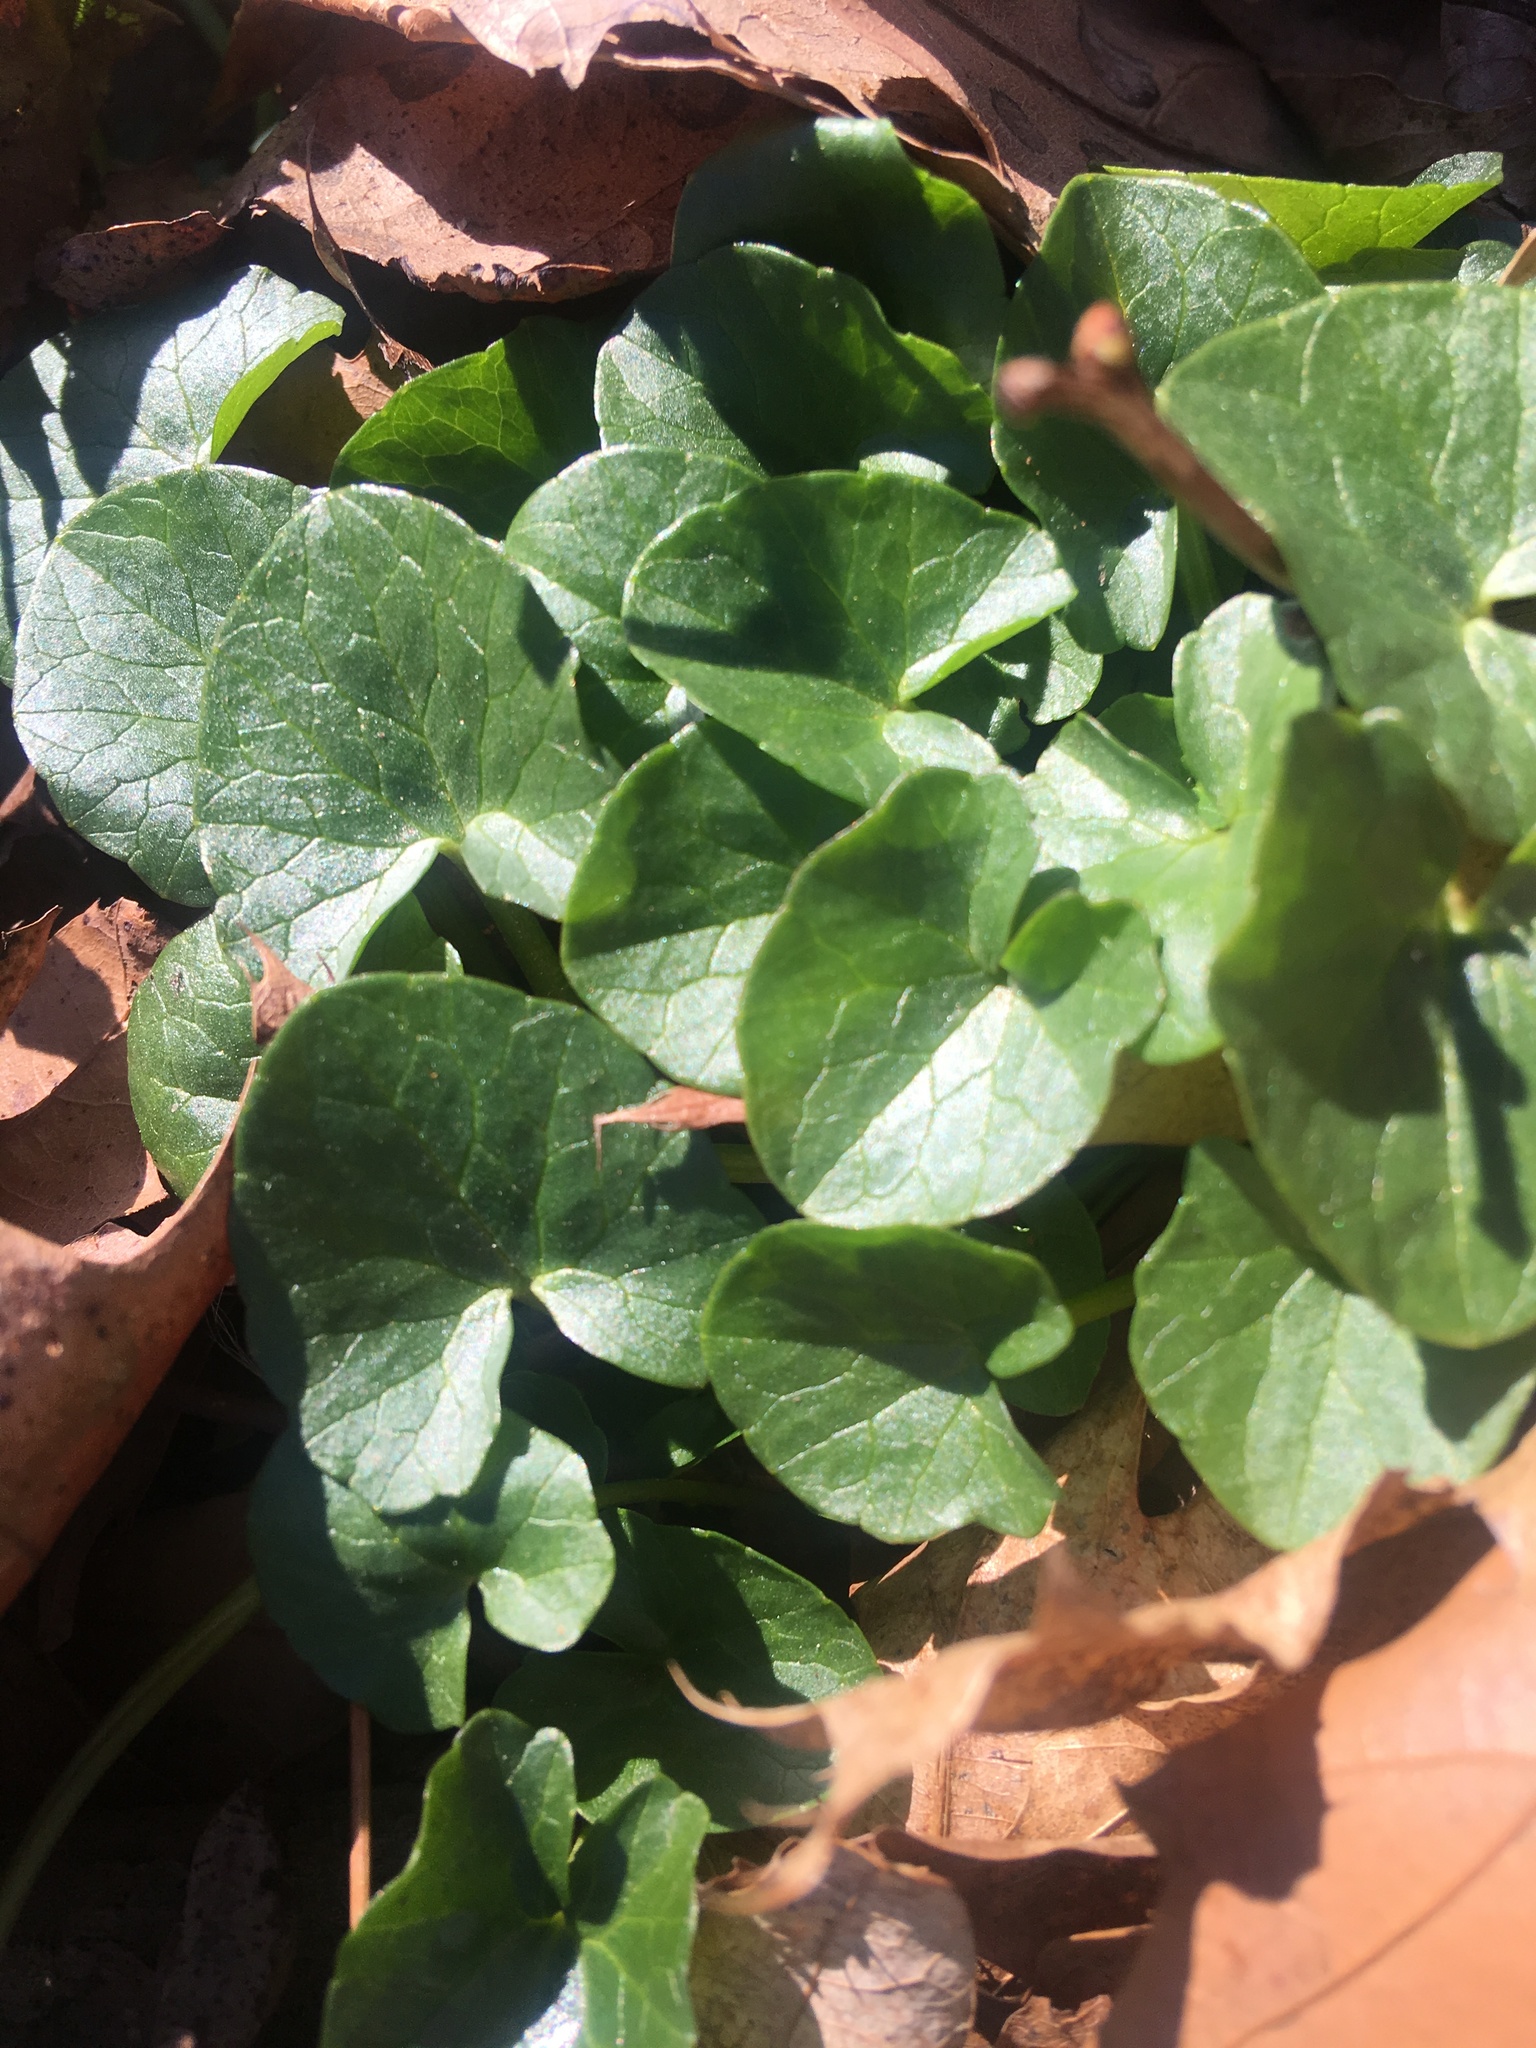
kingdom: Plantae
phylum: Tracheophyta
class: Magnoliopsida
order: Ranunculales
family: Ranunculaceae
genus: Ficaria
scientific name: Ficaria verna
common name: Lesser celandine
